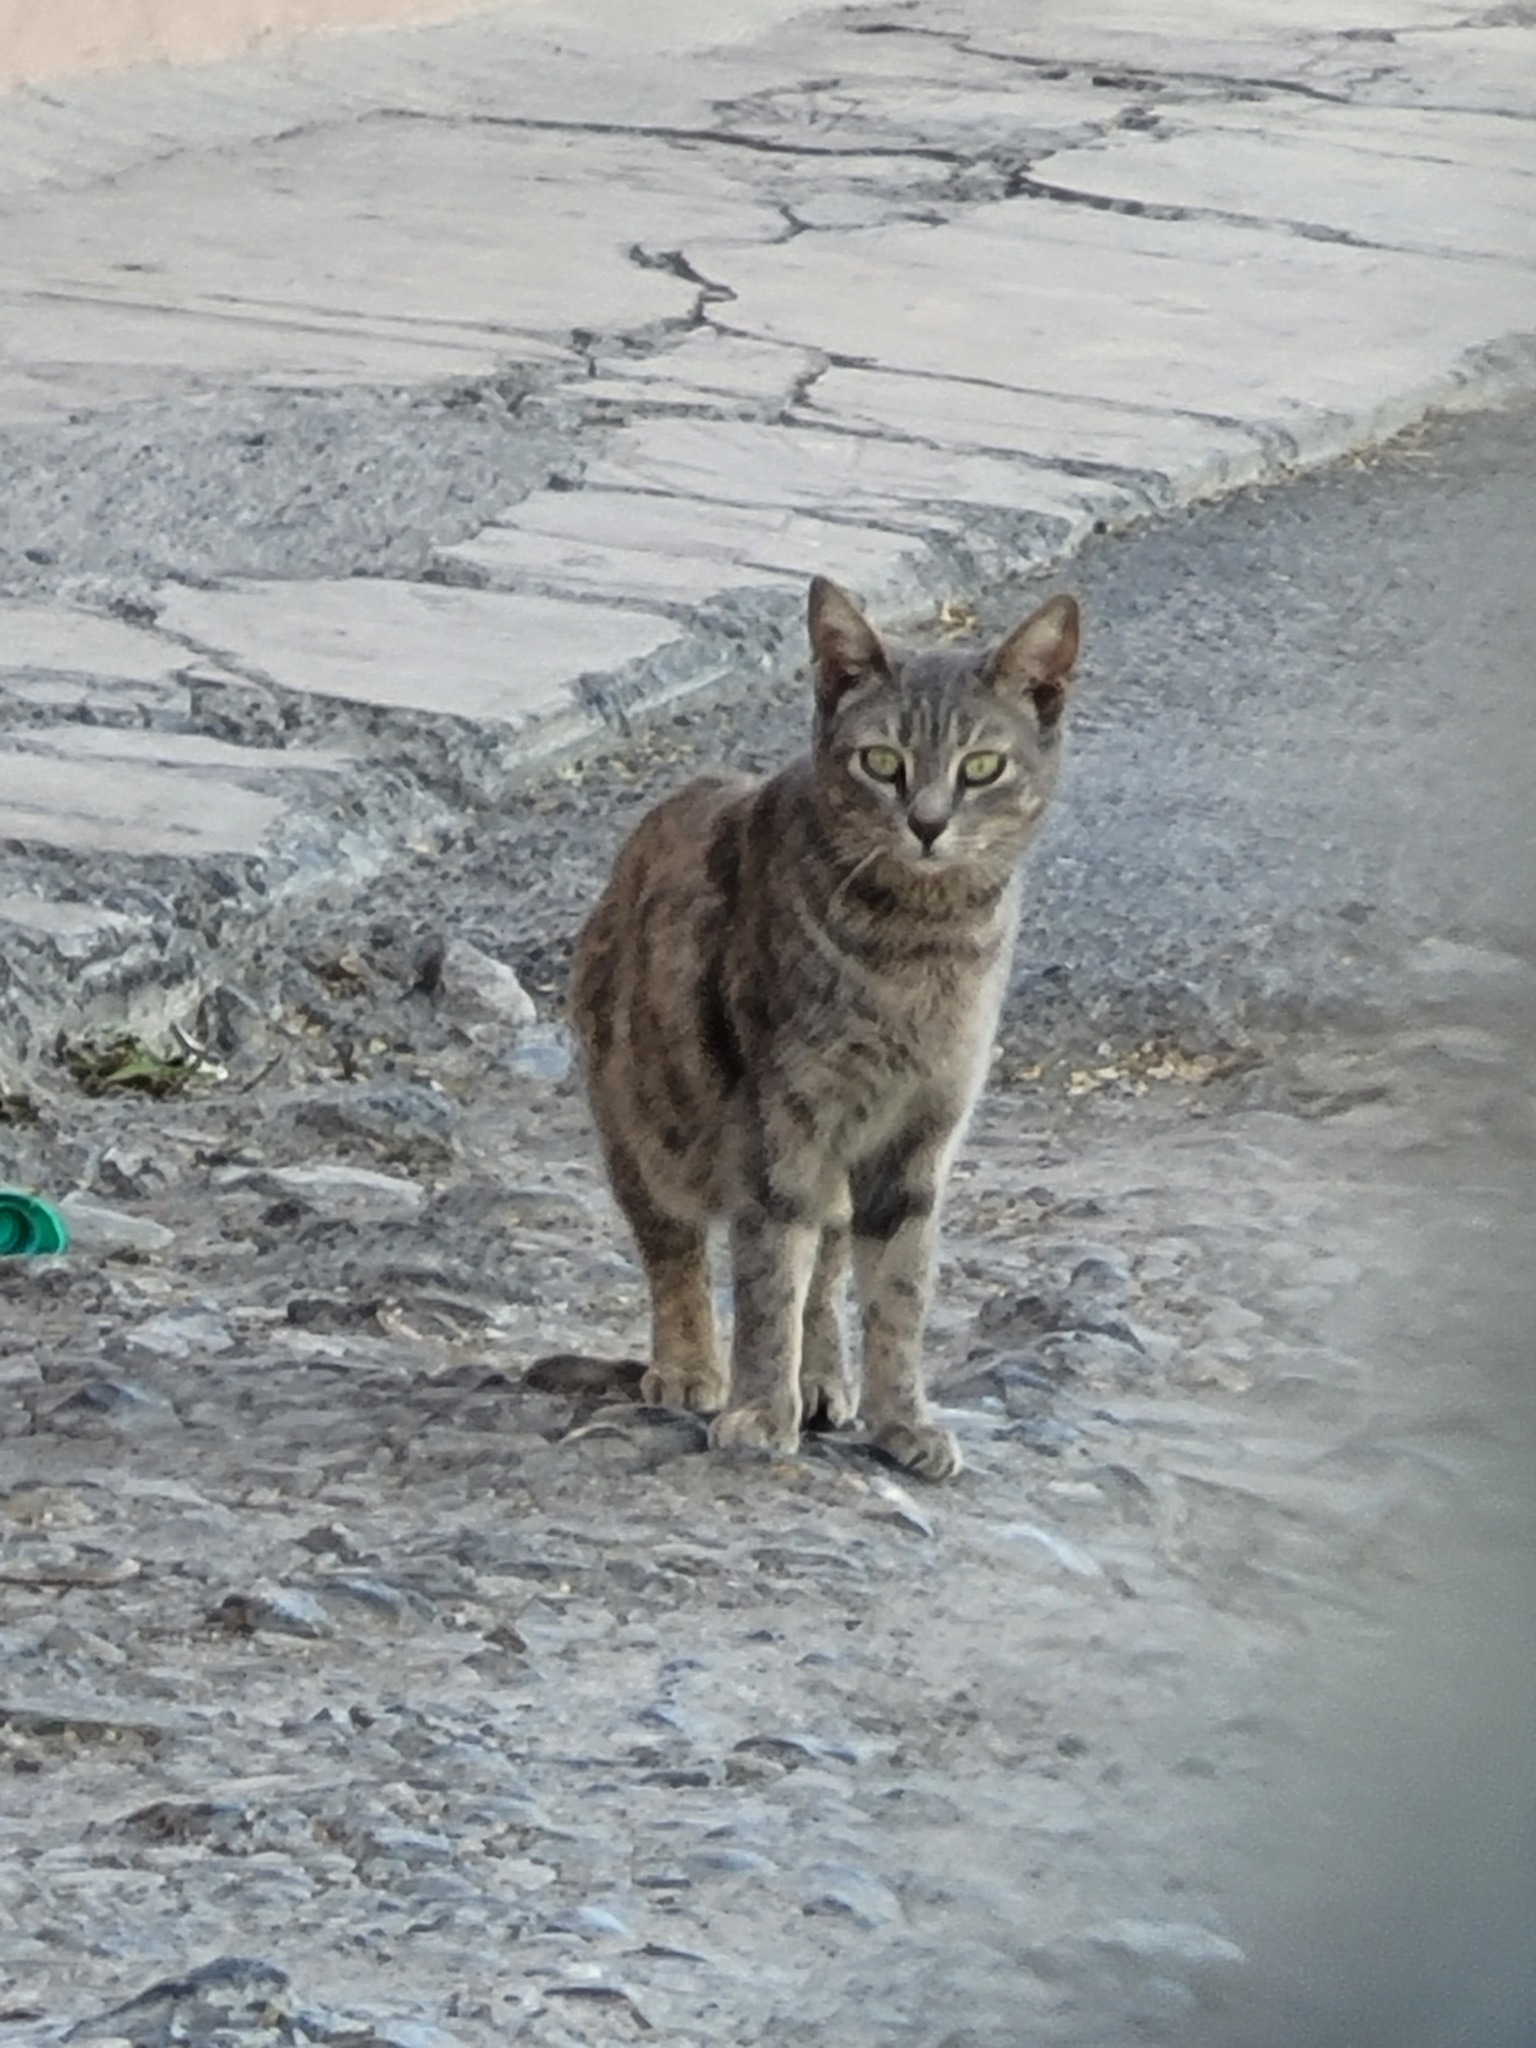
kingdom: Animalia
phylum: Chordata
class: Mammalia
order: Carnivora
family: Felidae
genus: Felis
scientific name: Felis catus
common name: Domestic cat
